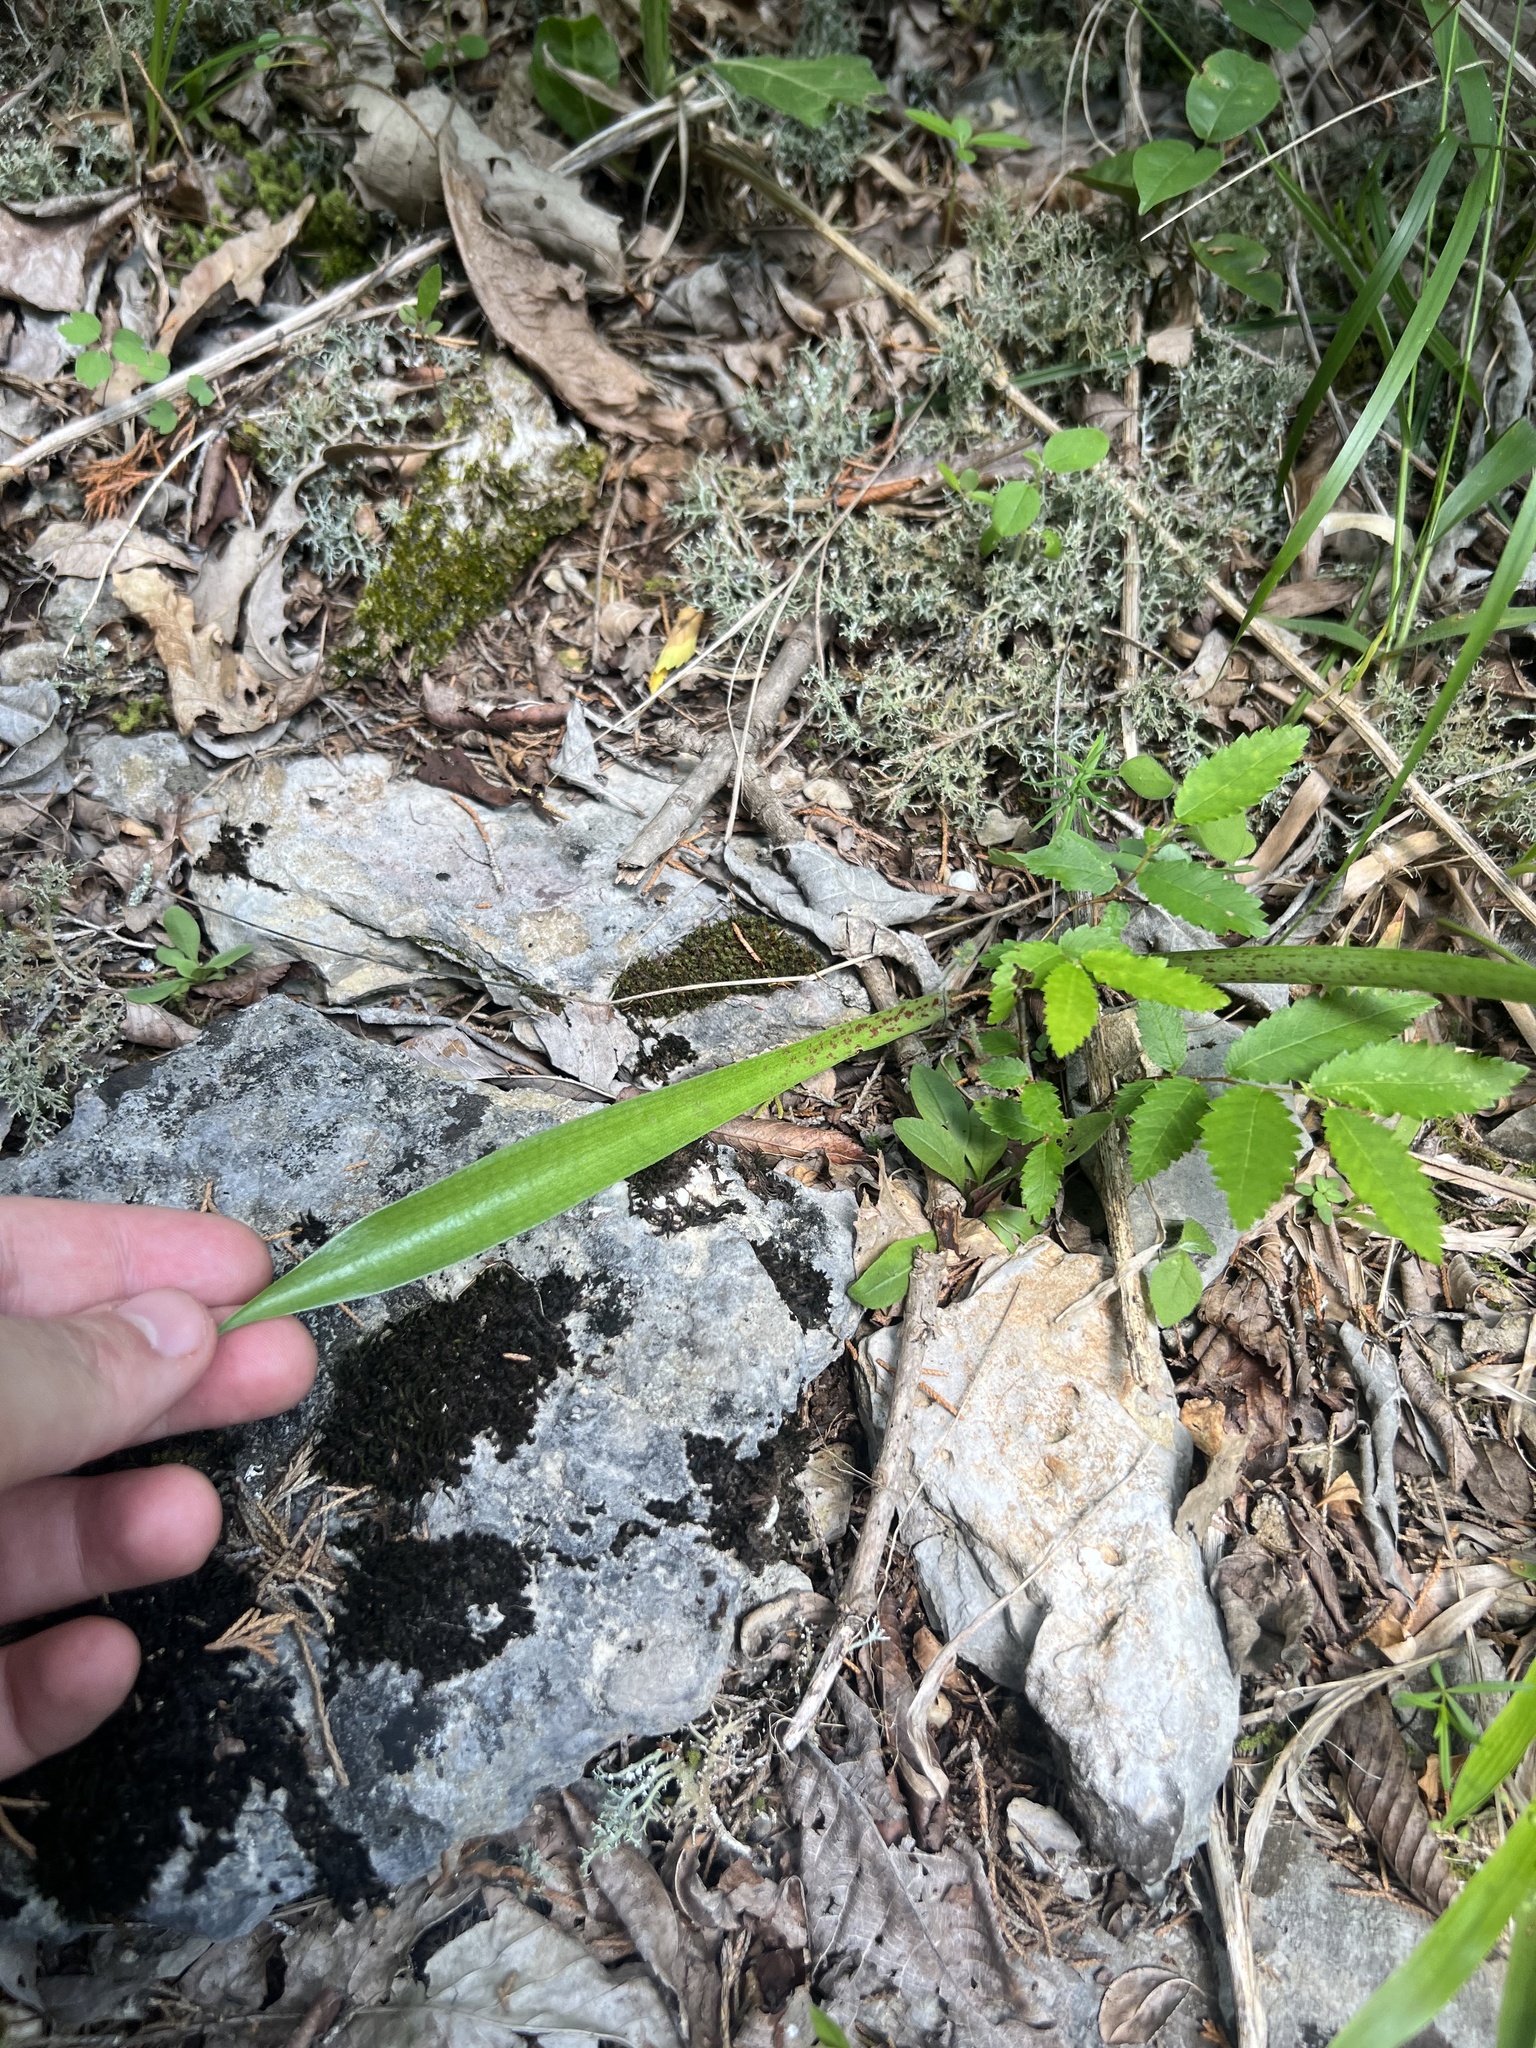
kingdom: Plantae
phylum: Tracheophyta
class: Liliopsida
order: Asparagales
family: Asparagaceae
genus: Agave
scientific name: Agave virginica
